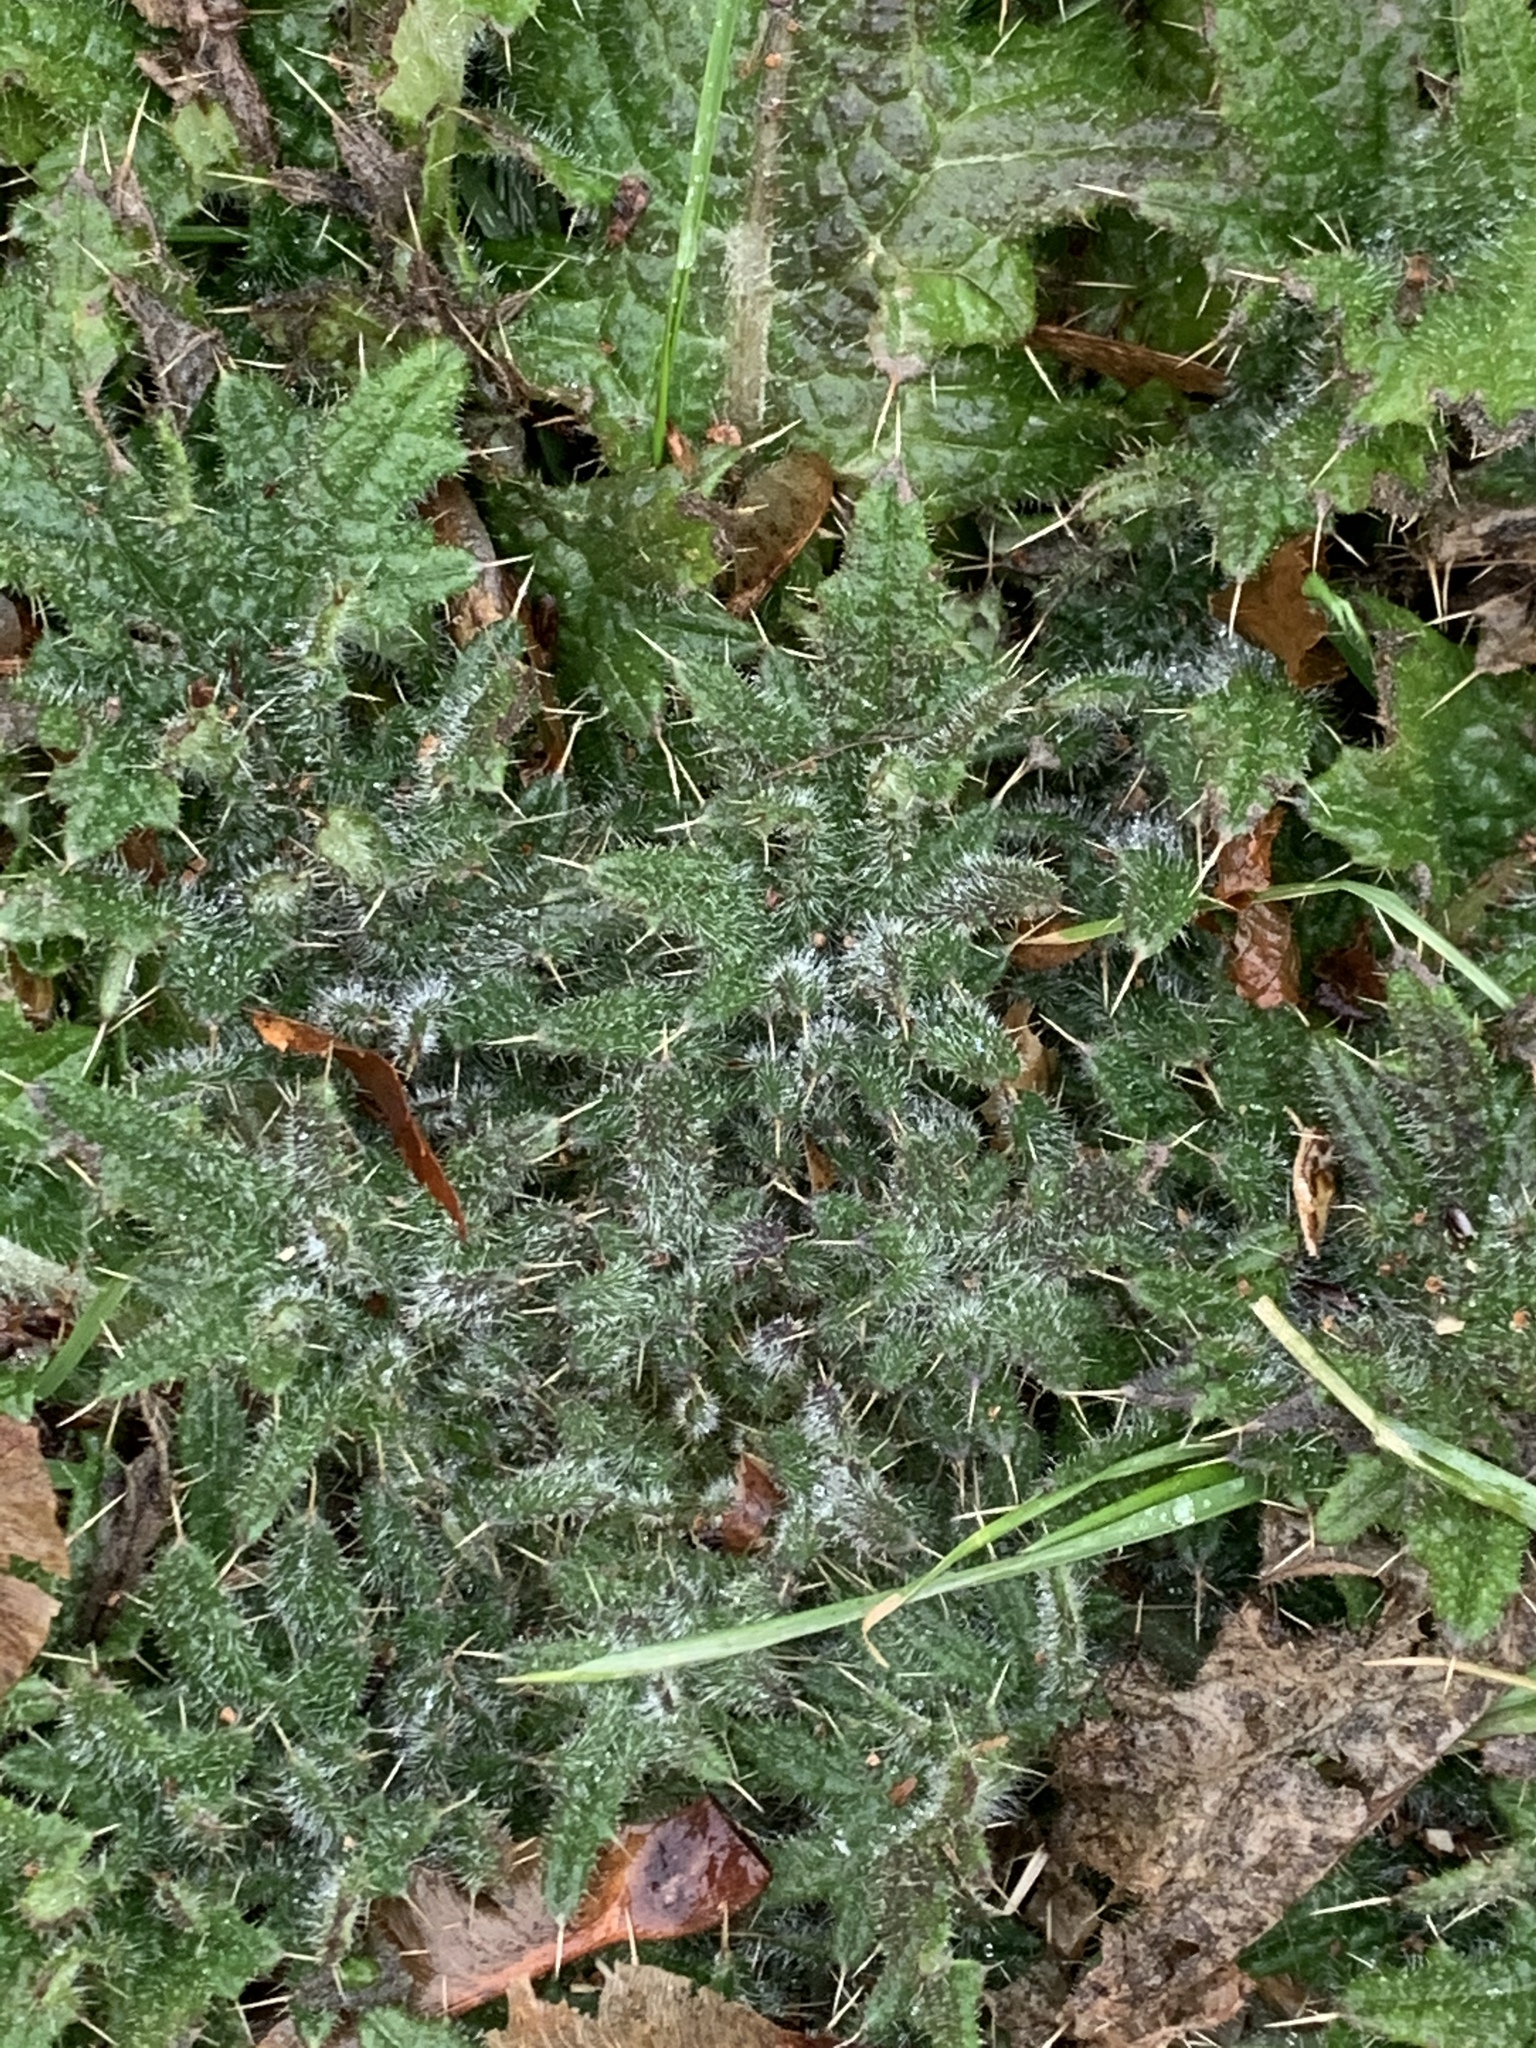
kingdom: Plantae
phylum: Tracheophyta
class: Magnoliopsida
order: Asterales
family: Asteraceae
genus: Cirsium
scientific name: Cirsium vulgare
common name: Bull thistle
